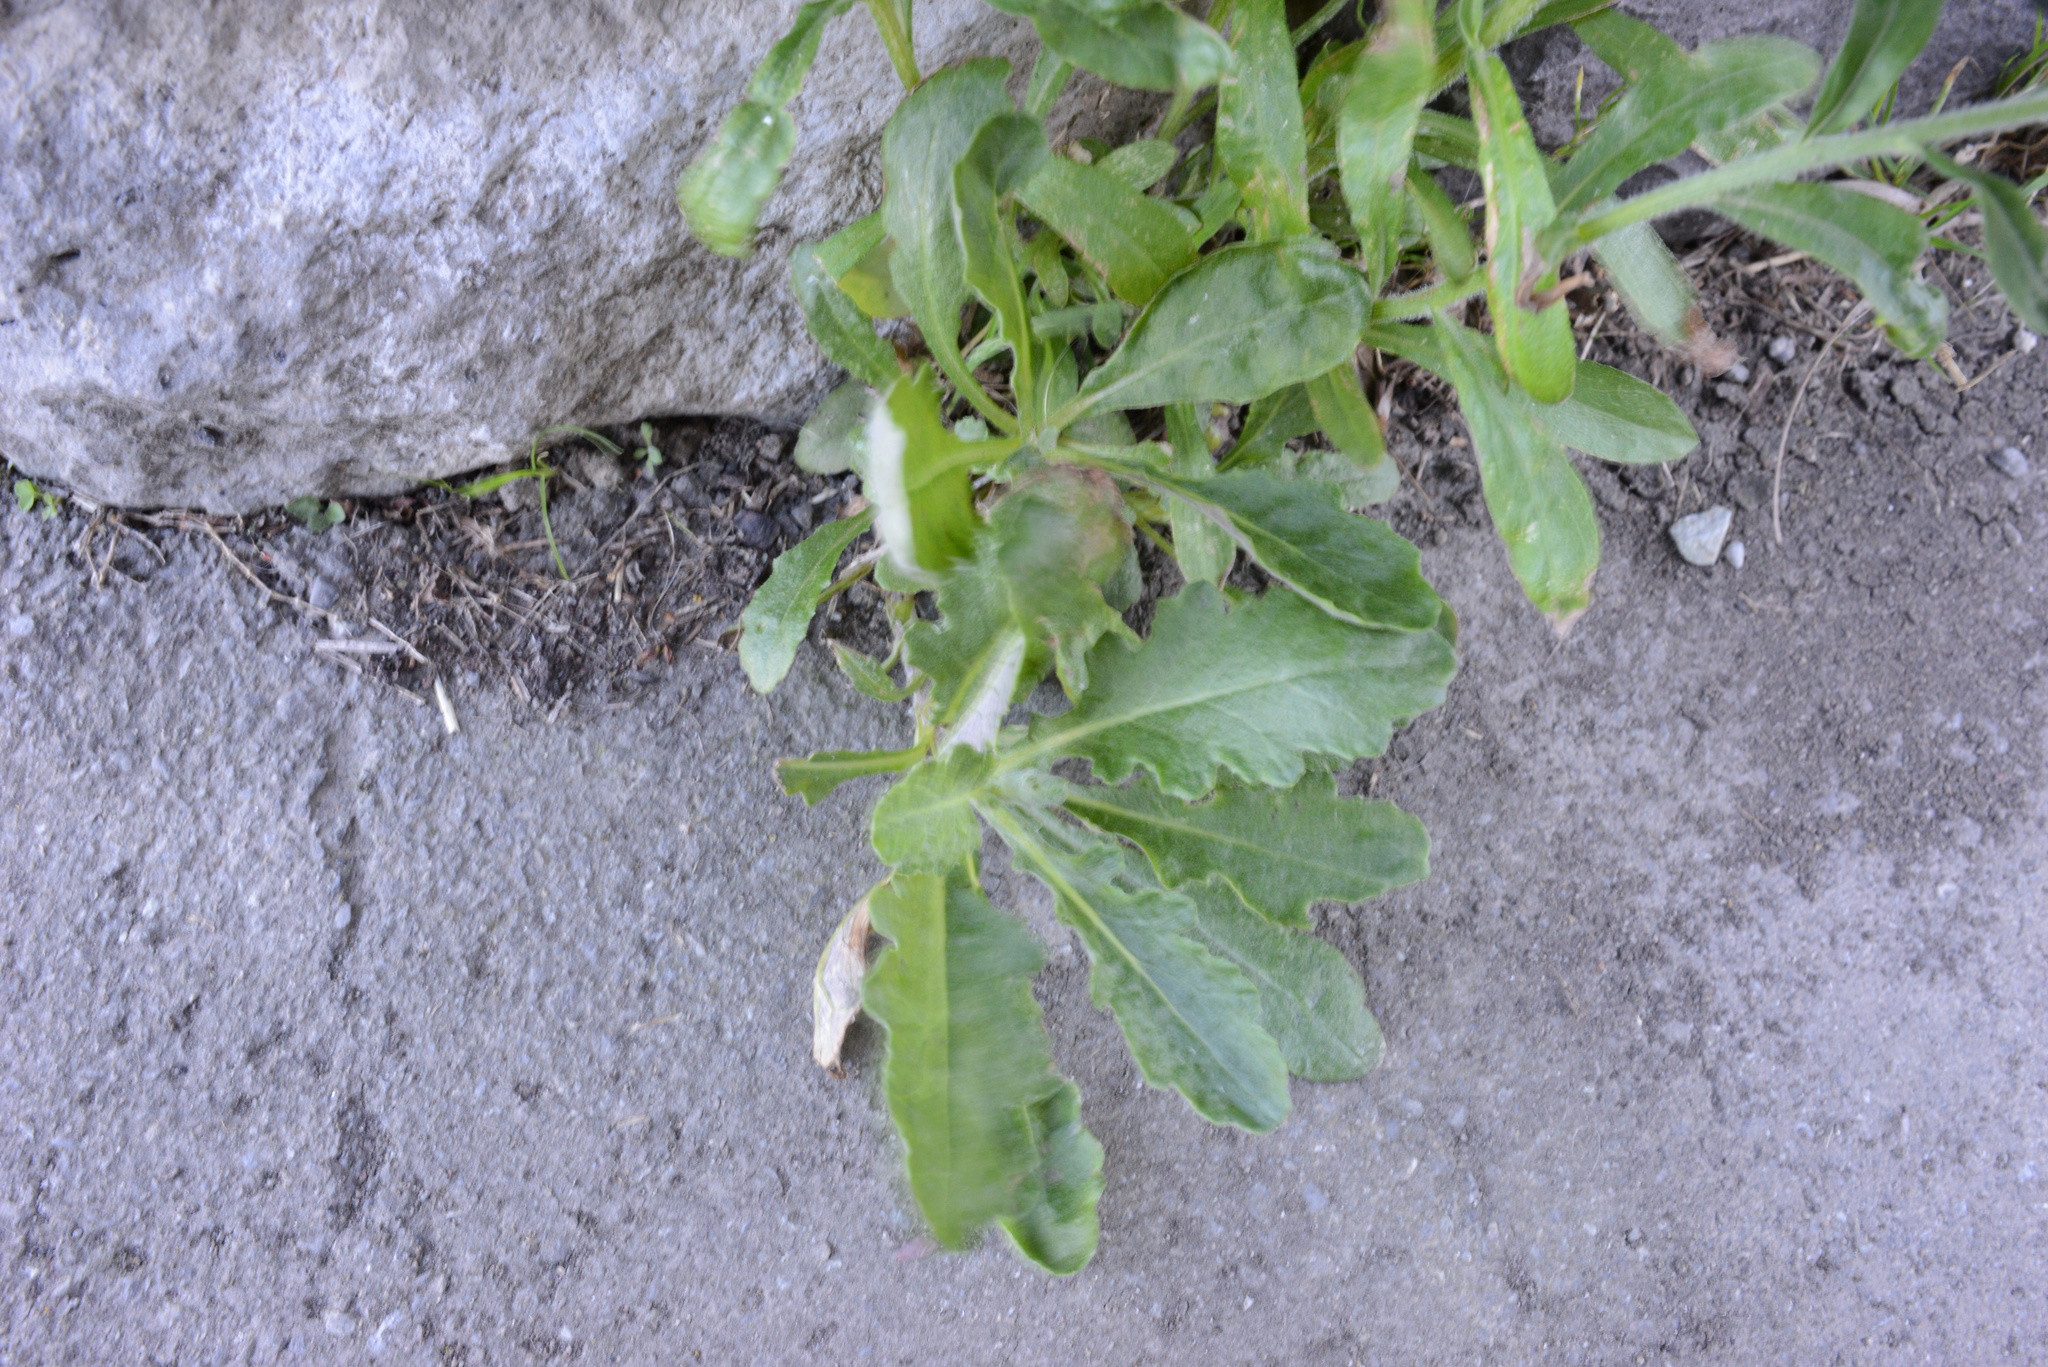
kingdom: Plantae
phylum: Tracheophyta
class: Magnoliopsida
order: Asterales
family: Asteraceae
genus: Senecio
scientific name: Senecio glomeratus
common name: Cutleaf burnweed
